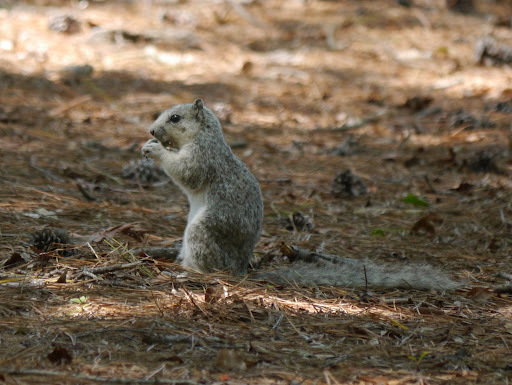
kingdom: Animalia
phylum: Chordata
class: Mammalia
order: Rodentia
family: Sciuridae
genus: Sciurus
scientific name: Sciurus niger
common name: Fox squirrel
